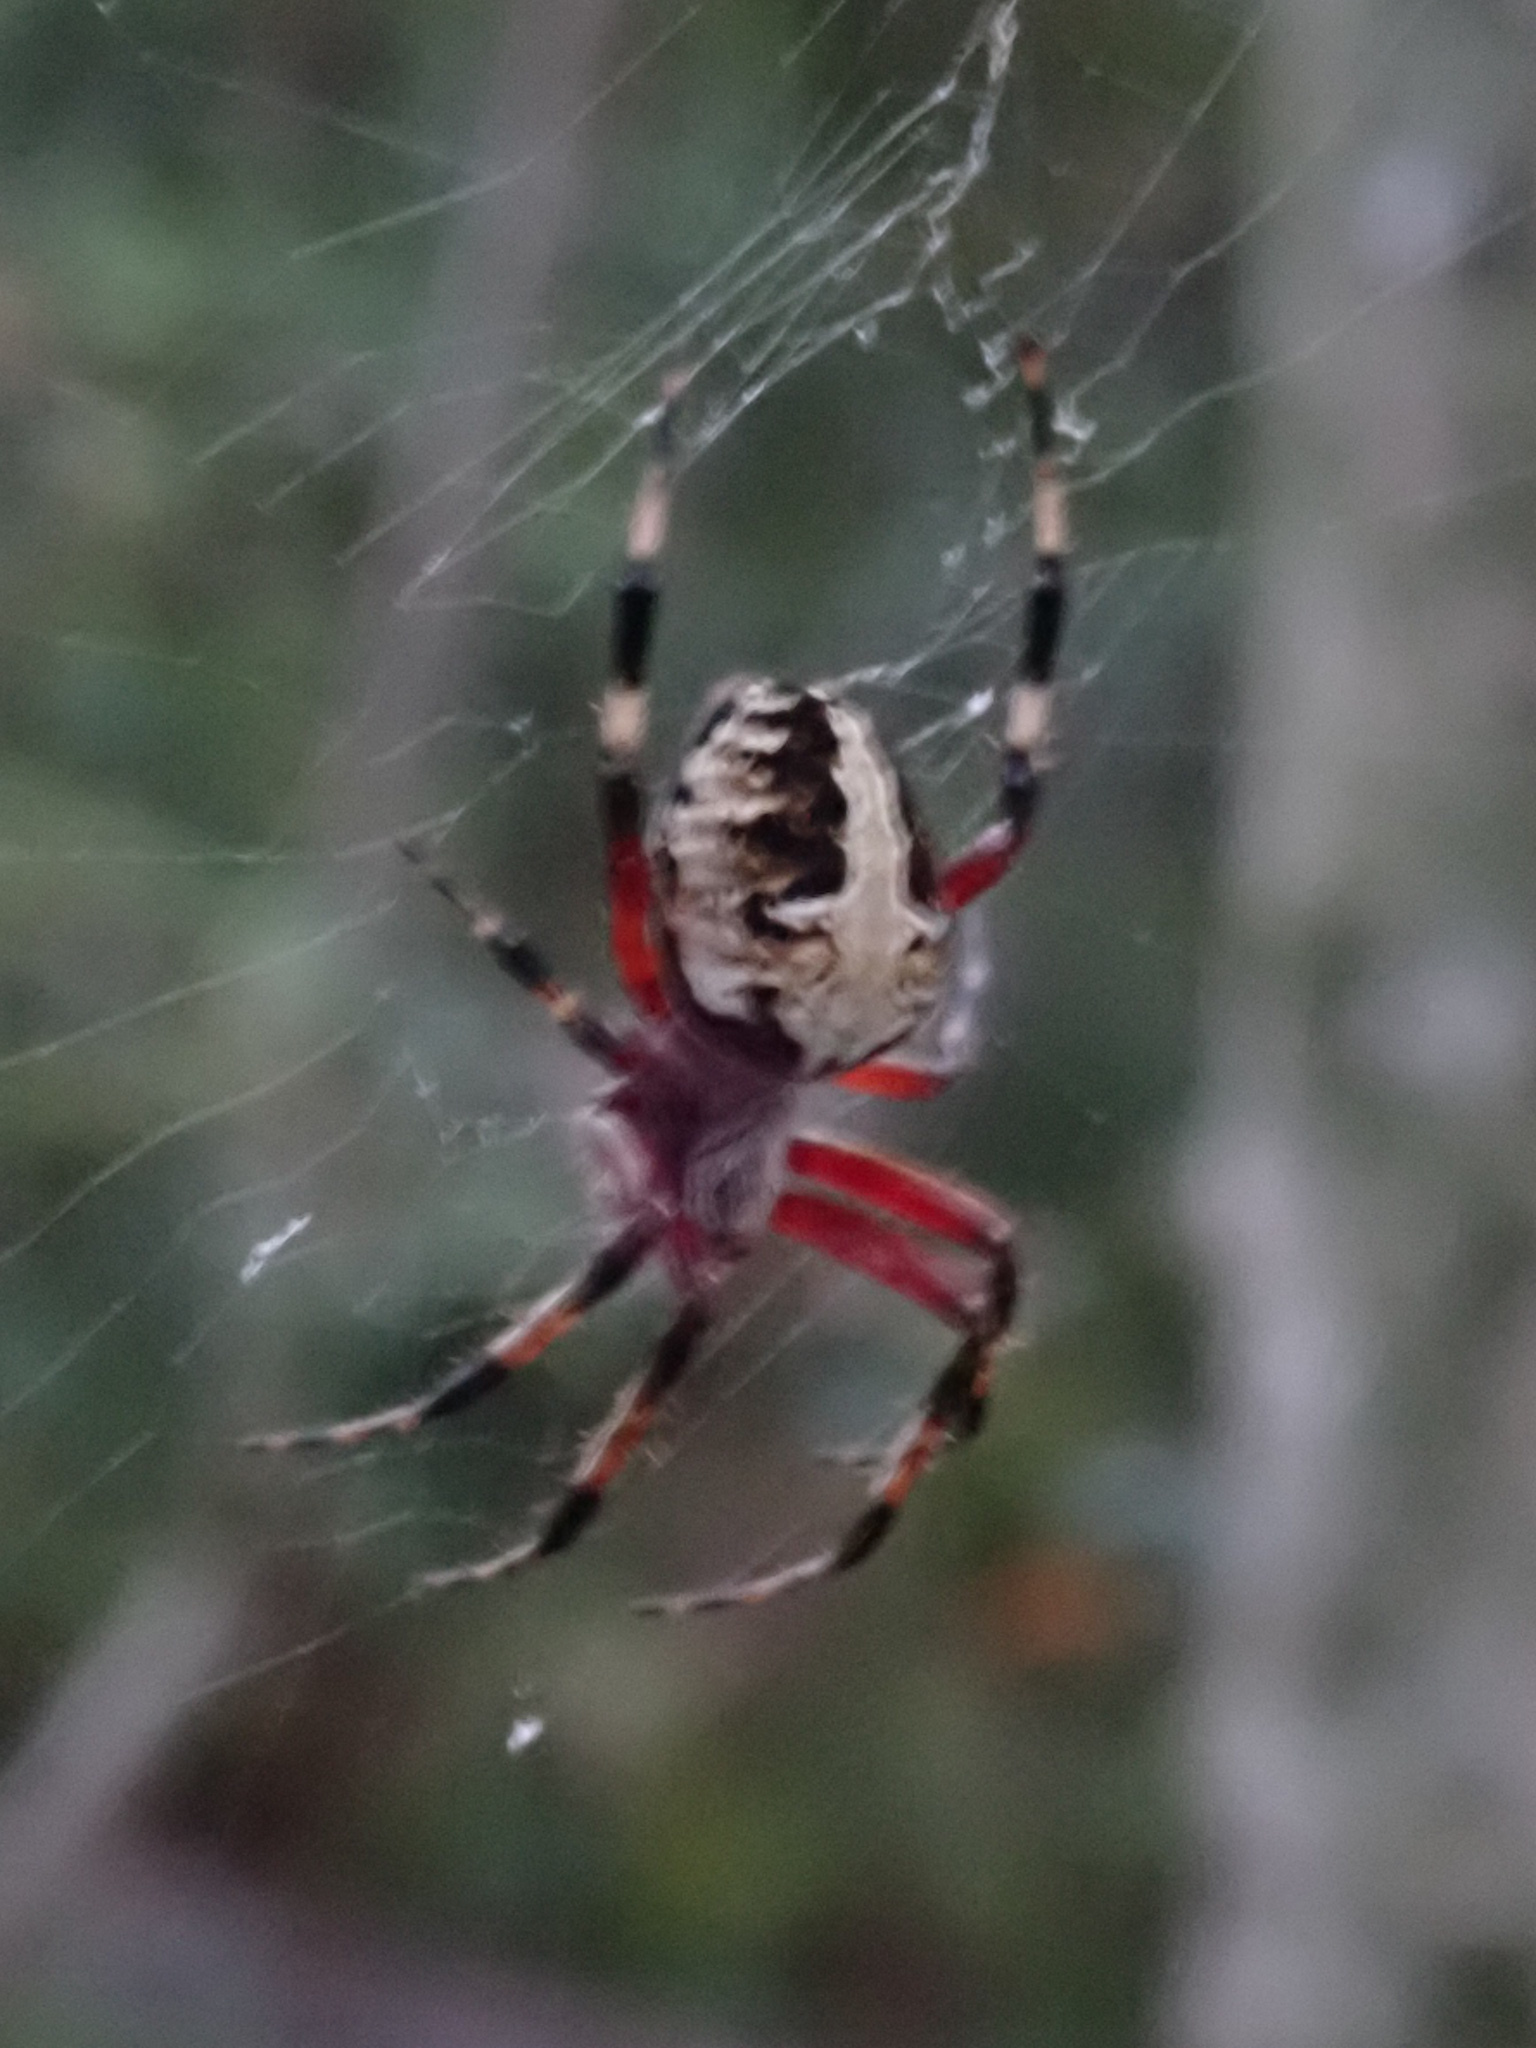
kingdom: Animalia
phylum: Arthropoda
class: Arachnida
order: Araneae
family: Araneidae
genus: Neoscona
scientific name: Neoscona domiciliorum
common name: Red-femured spotted orbweaver
